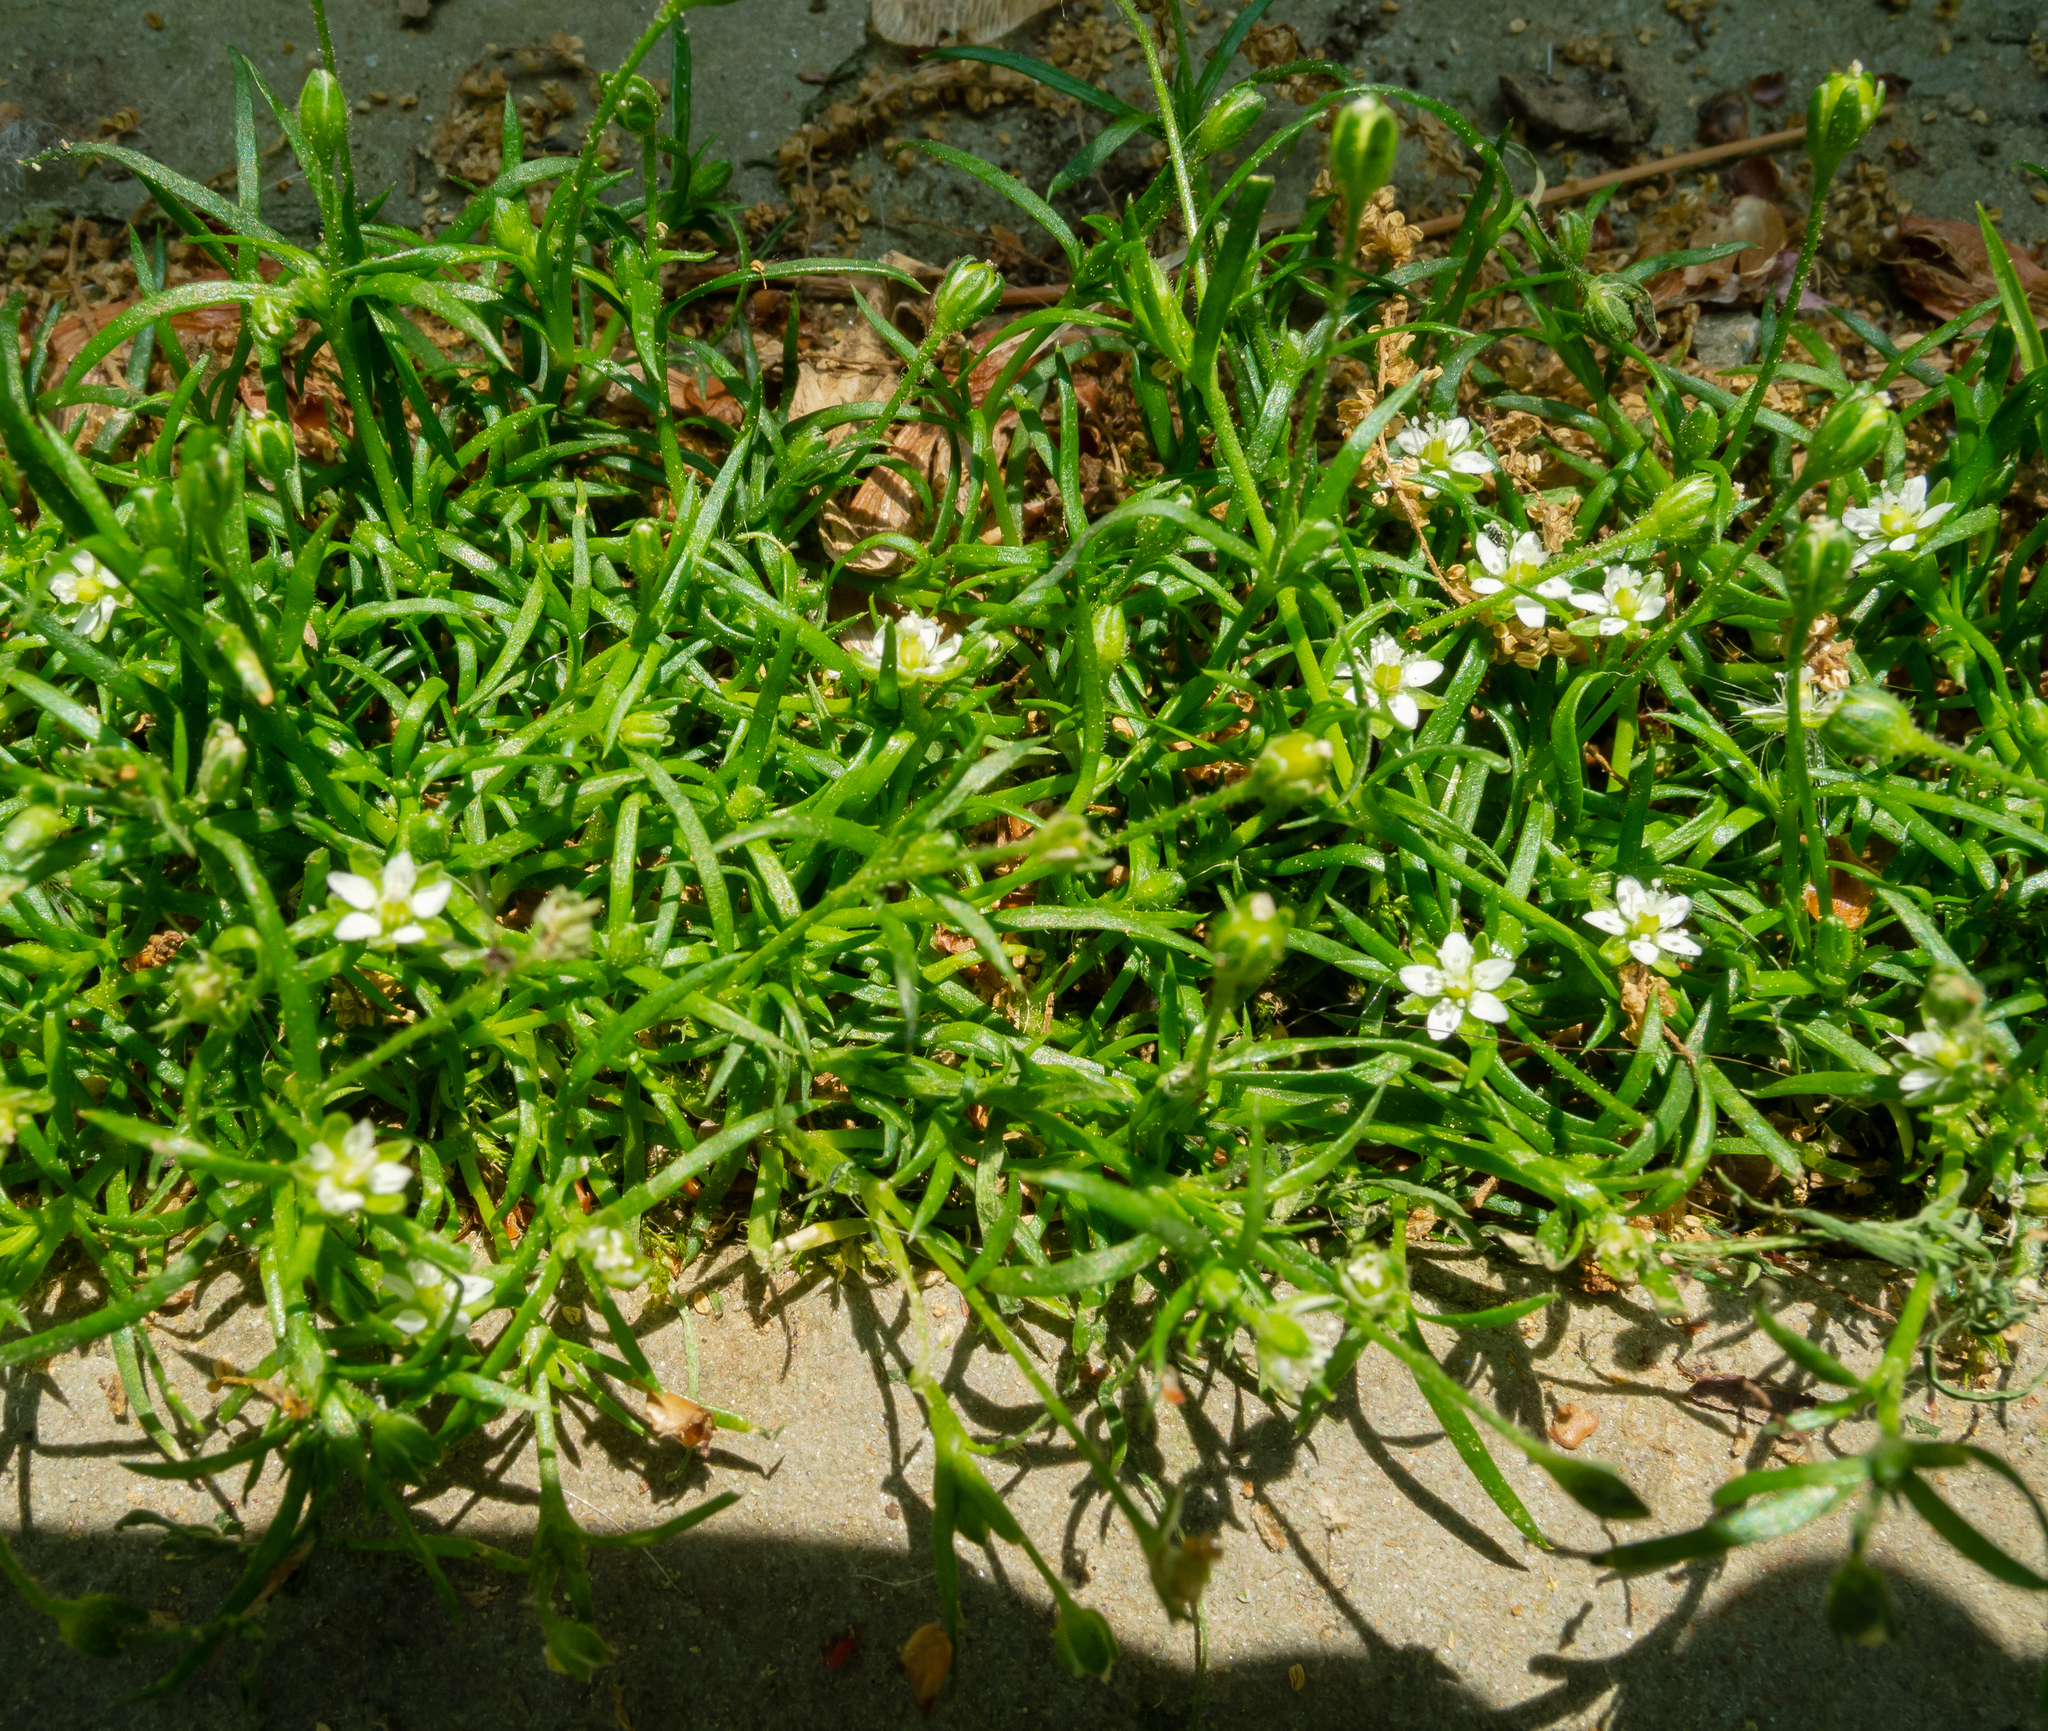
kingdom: Plantae
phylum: Tracheophyta
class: Magnoliopsida
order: Caryophyllales
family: Caryophyllaceae
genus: Sagina
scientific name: Sagina japonica
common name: Japanese pearlwort
